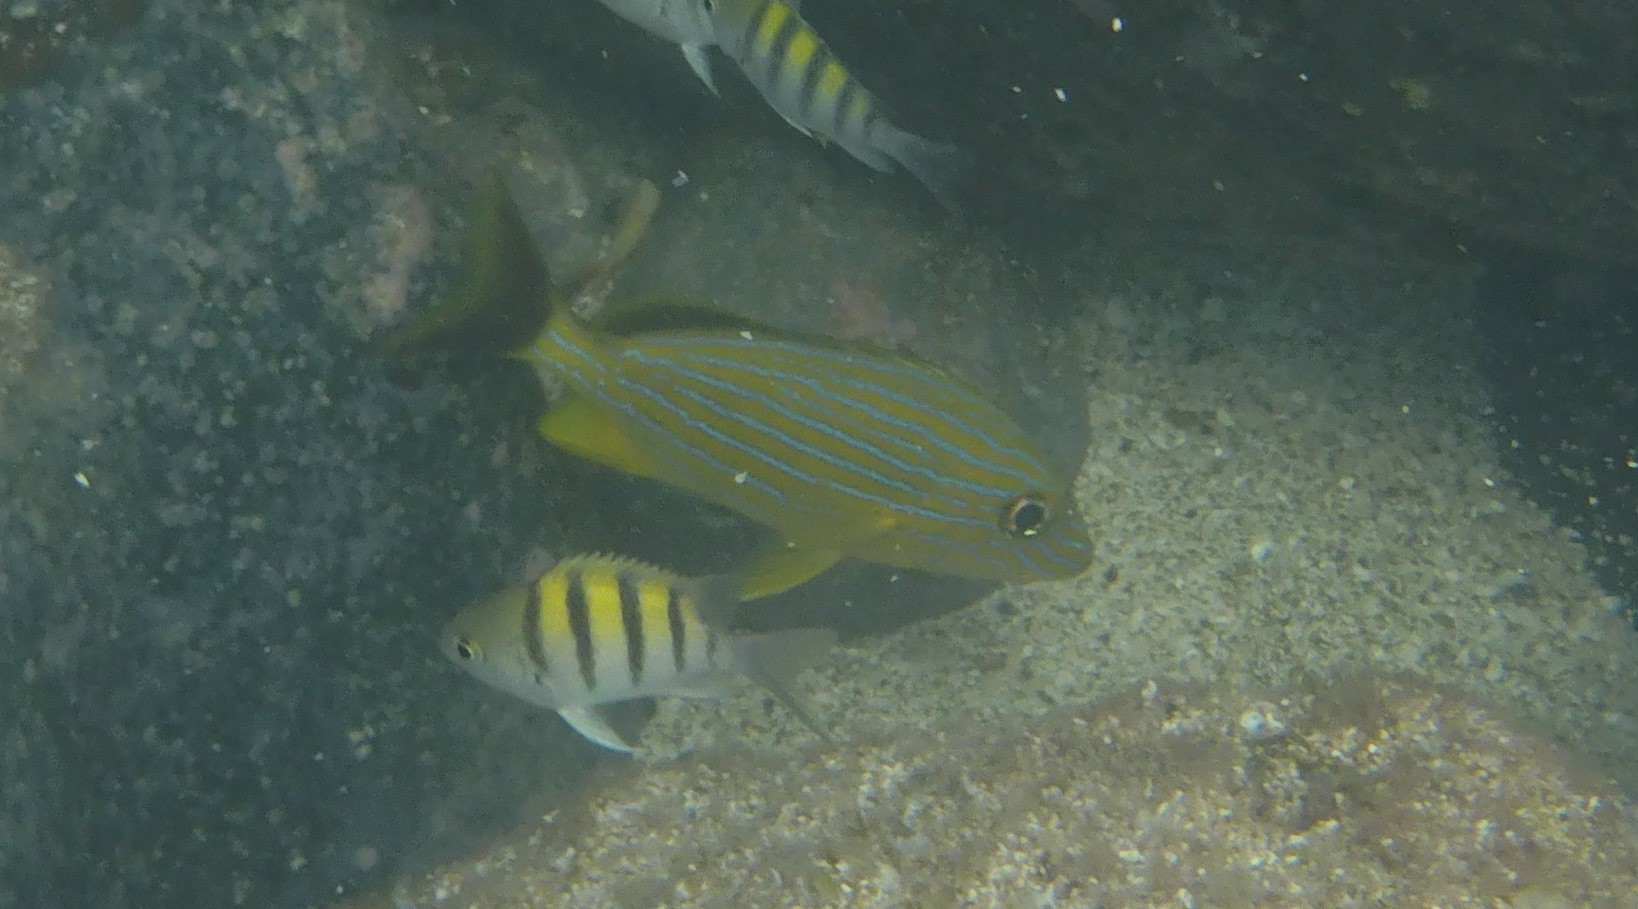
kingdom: Animalia
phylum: Chordata
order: Perciformes
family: Haemulidae
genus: Haemulon
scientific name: Haemulon sciurus
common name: Bluestriped grunt
